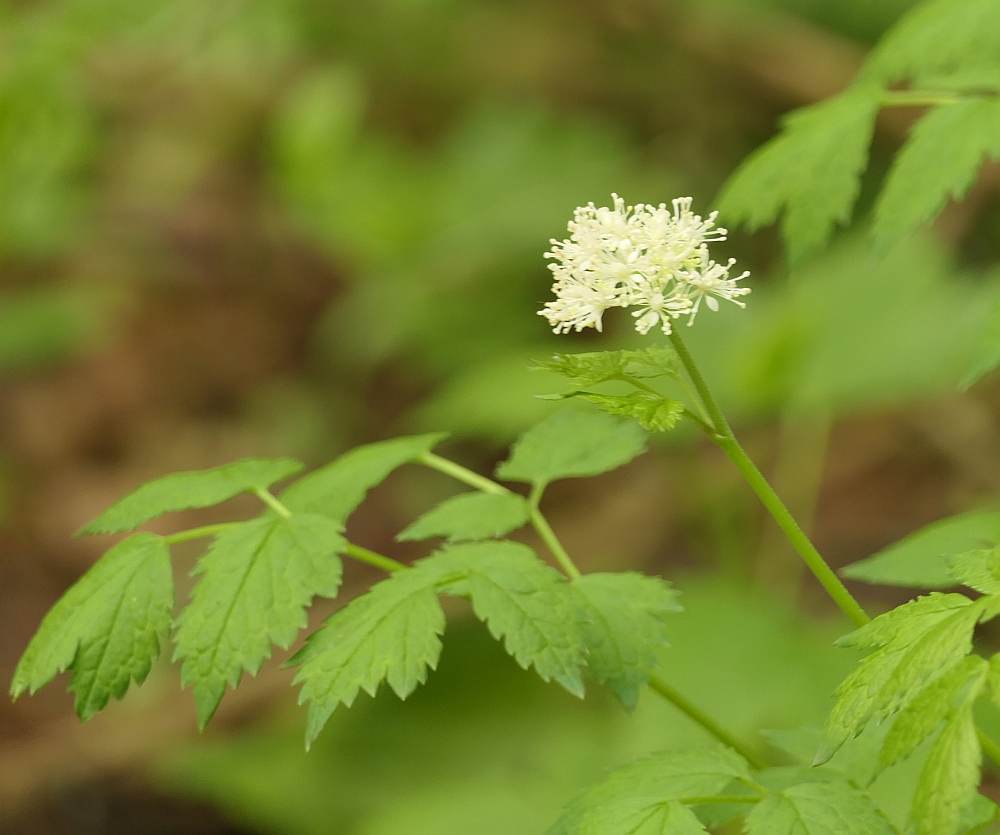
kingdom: Plantae
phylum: Tracheophyta
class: Magnoliopsida
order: Ranunculales
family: Ranunculaceae
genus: Actaea
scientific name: Actaea pachypoda
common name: Doll's-eyes
